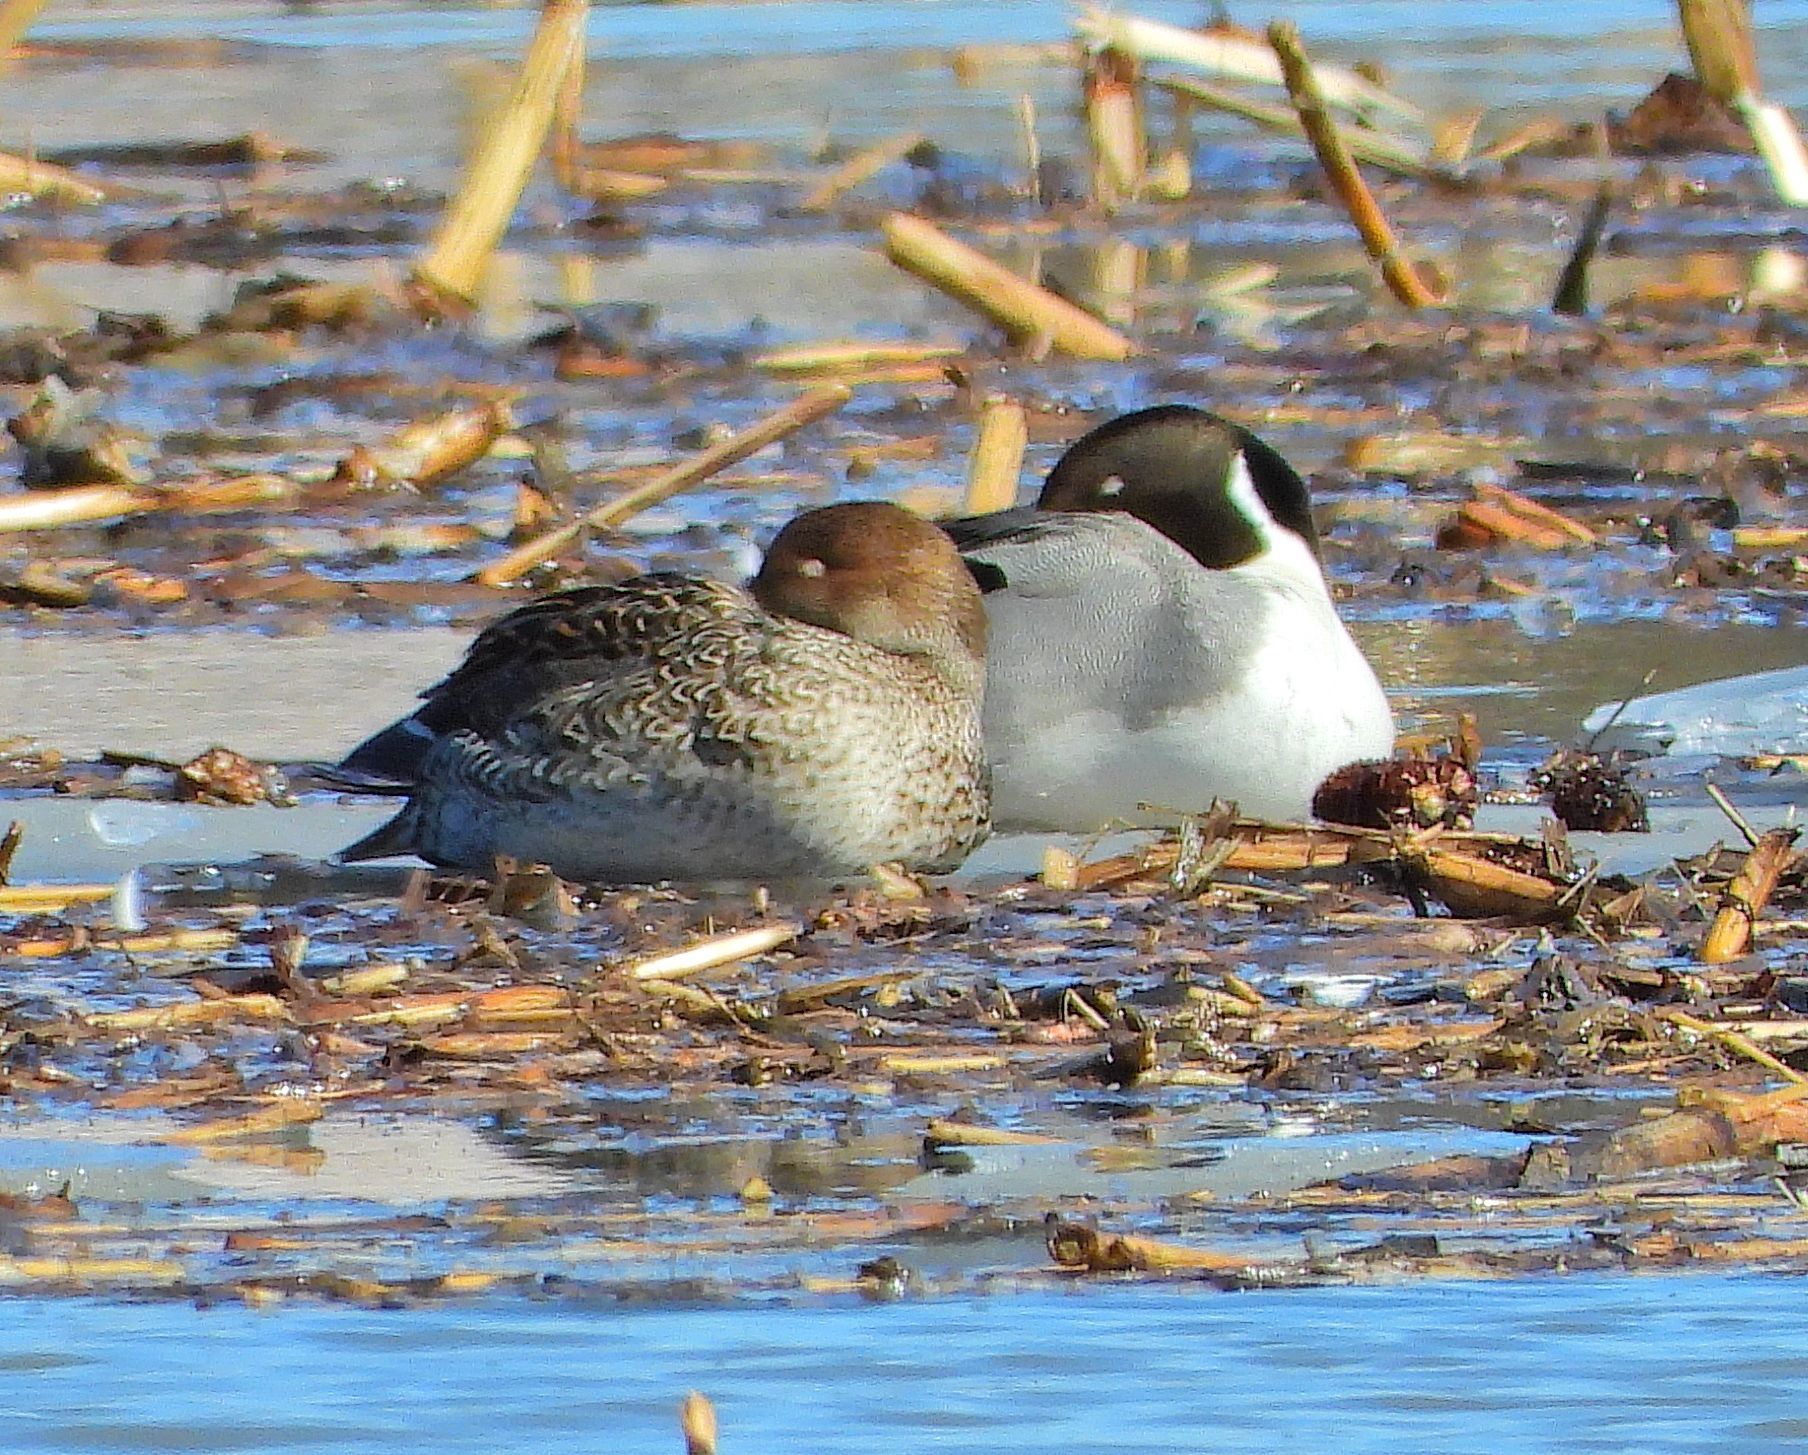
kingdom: Animalia
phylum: Chordata
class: Aves
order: Anseriformes
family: Anatidae
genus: Anas
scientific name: Anas acuta
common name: Northern pintail
